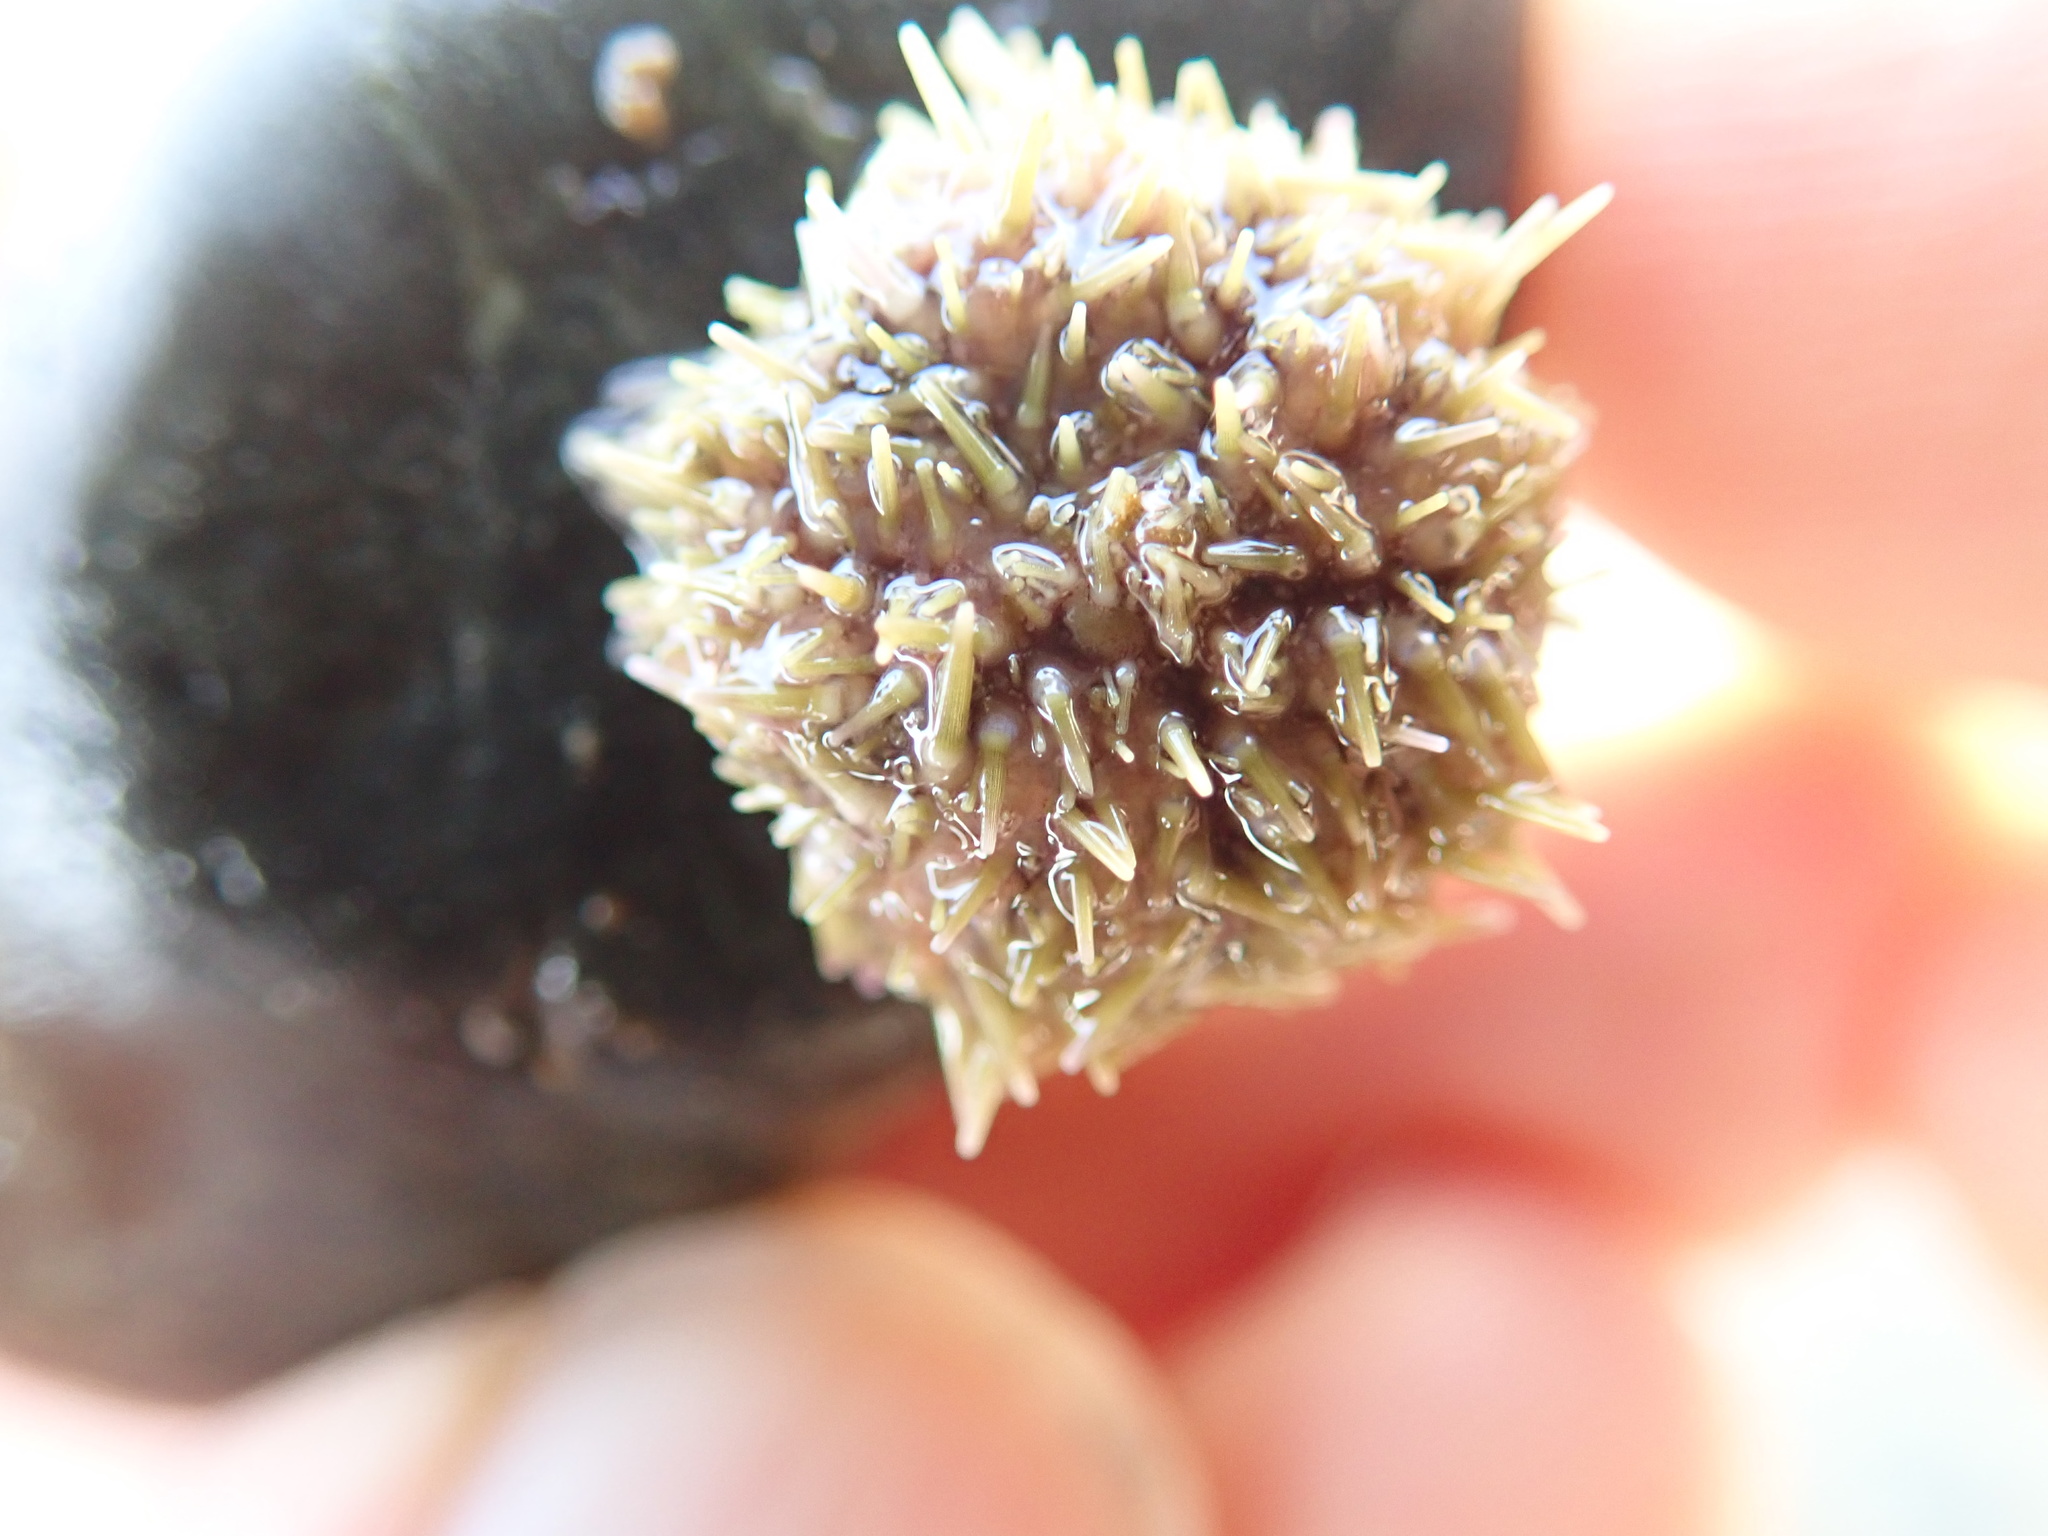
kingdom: Animalia
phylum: Echinodermata
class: Echinoidea
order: Camarodonta
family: Strongylocentrotidae
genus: Strongylocentrotus
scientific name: Strongylocentrotus droebachiensis
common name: Northern sea urchin
